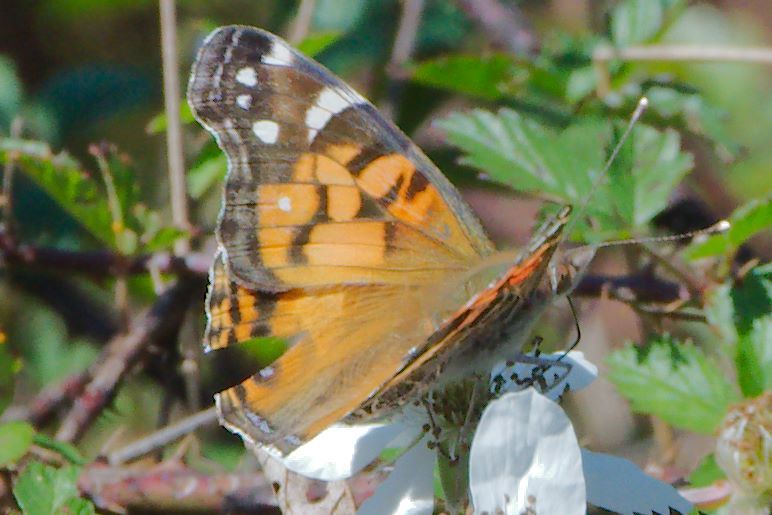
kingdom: Animalia
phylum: Arthropoda
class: Insecta
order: Lepidoptera
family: Nymphalidae
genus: Vanessa
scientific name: Vanessa virginiensis
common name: American lady
